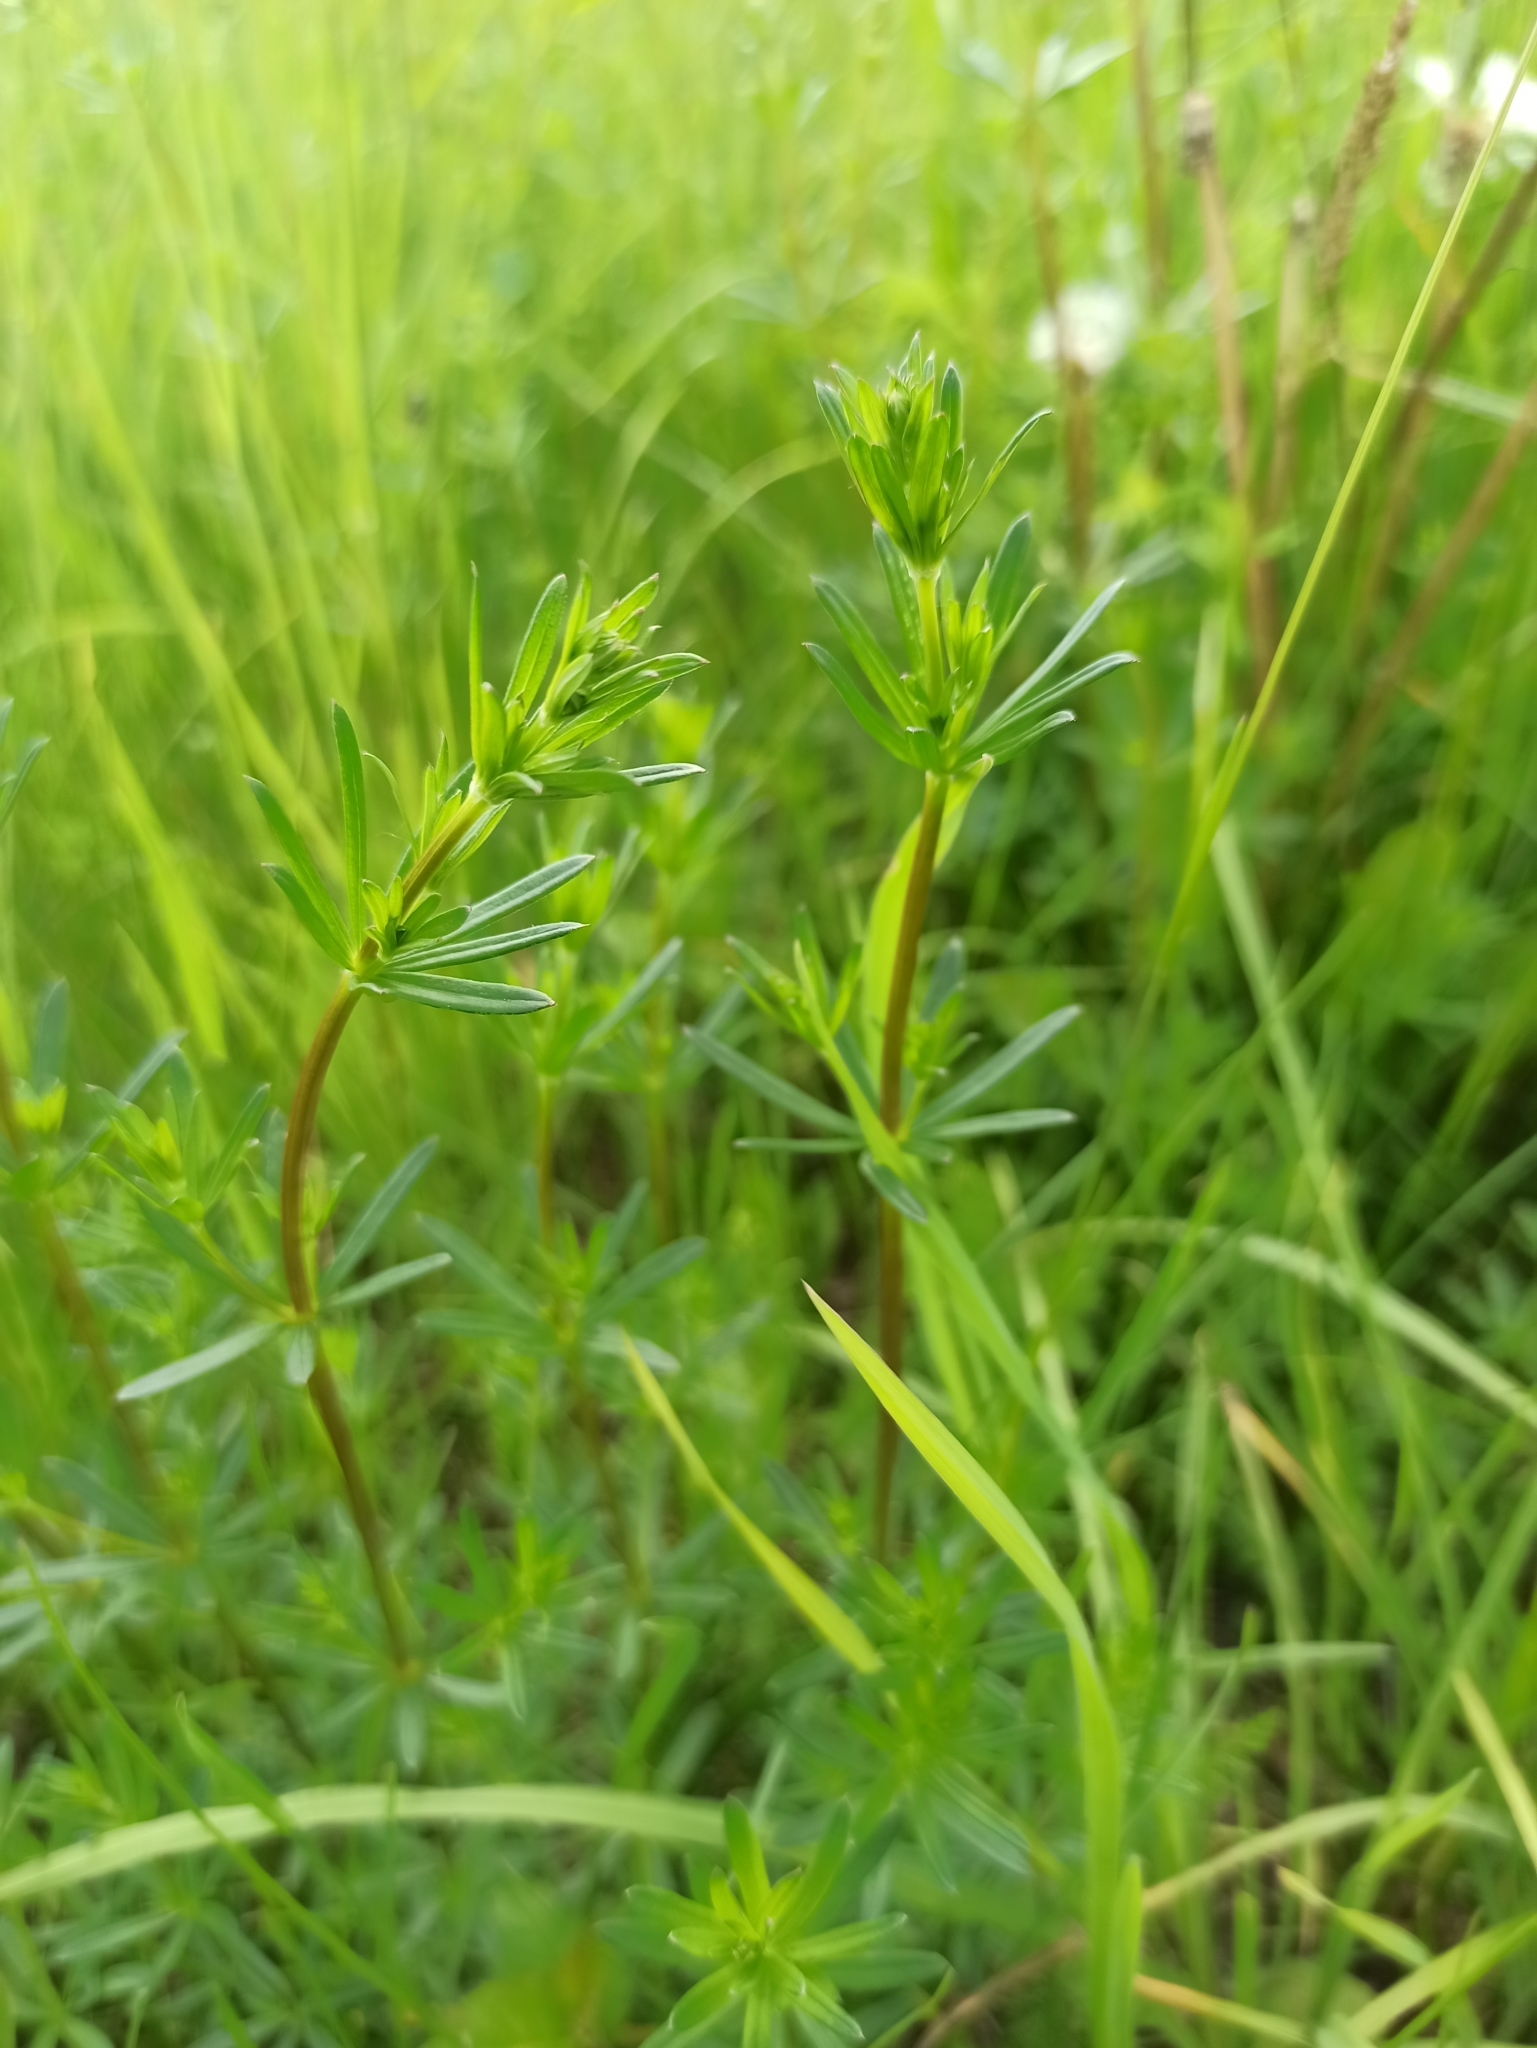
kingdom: Plantae
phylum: Tracheophyta
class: Magnoliopsida
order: Gentianales
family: Rubiaceae
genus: Galium
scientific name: Galium mollugo
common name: Hedge bedstraw
